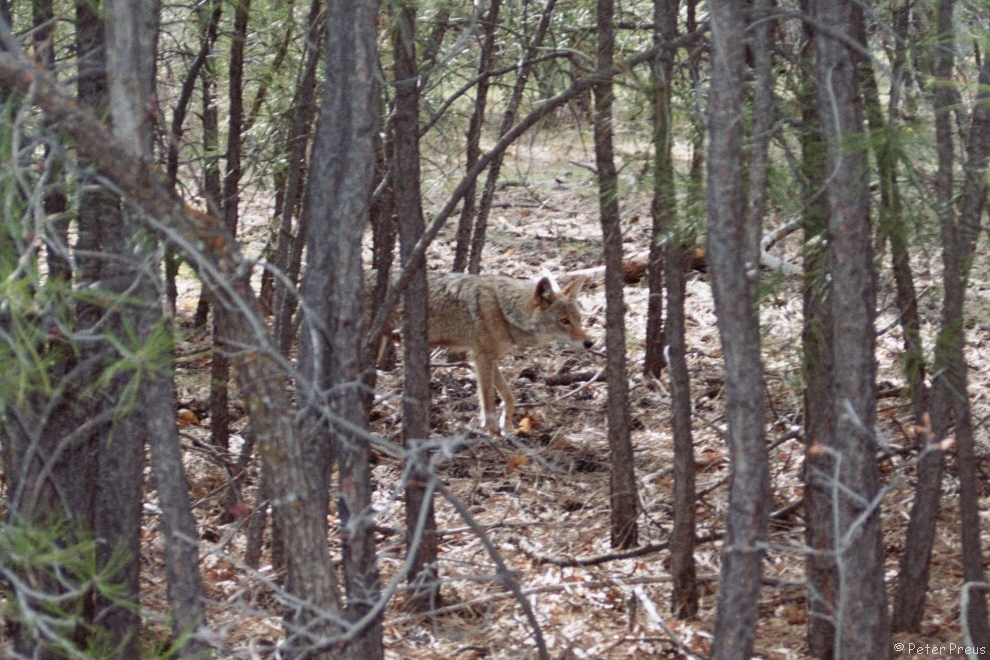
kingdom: Animalia
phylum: Chordata
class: Mammalia
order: Carnivora
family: Canidae
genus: Canis
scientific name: Canis latrans
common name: Coyote
